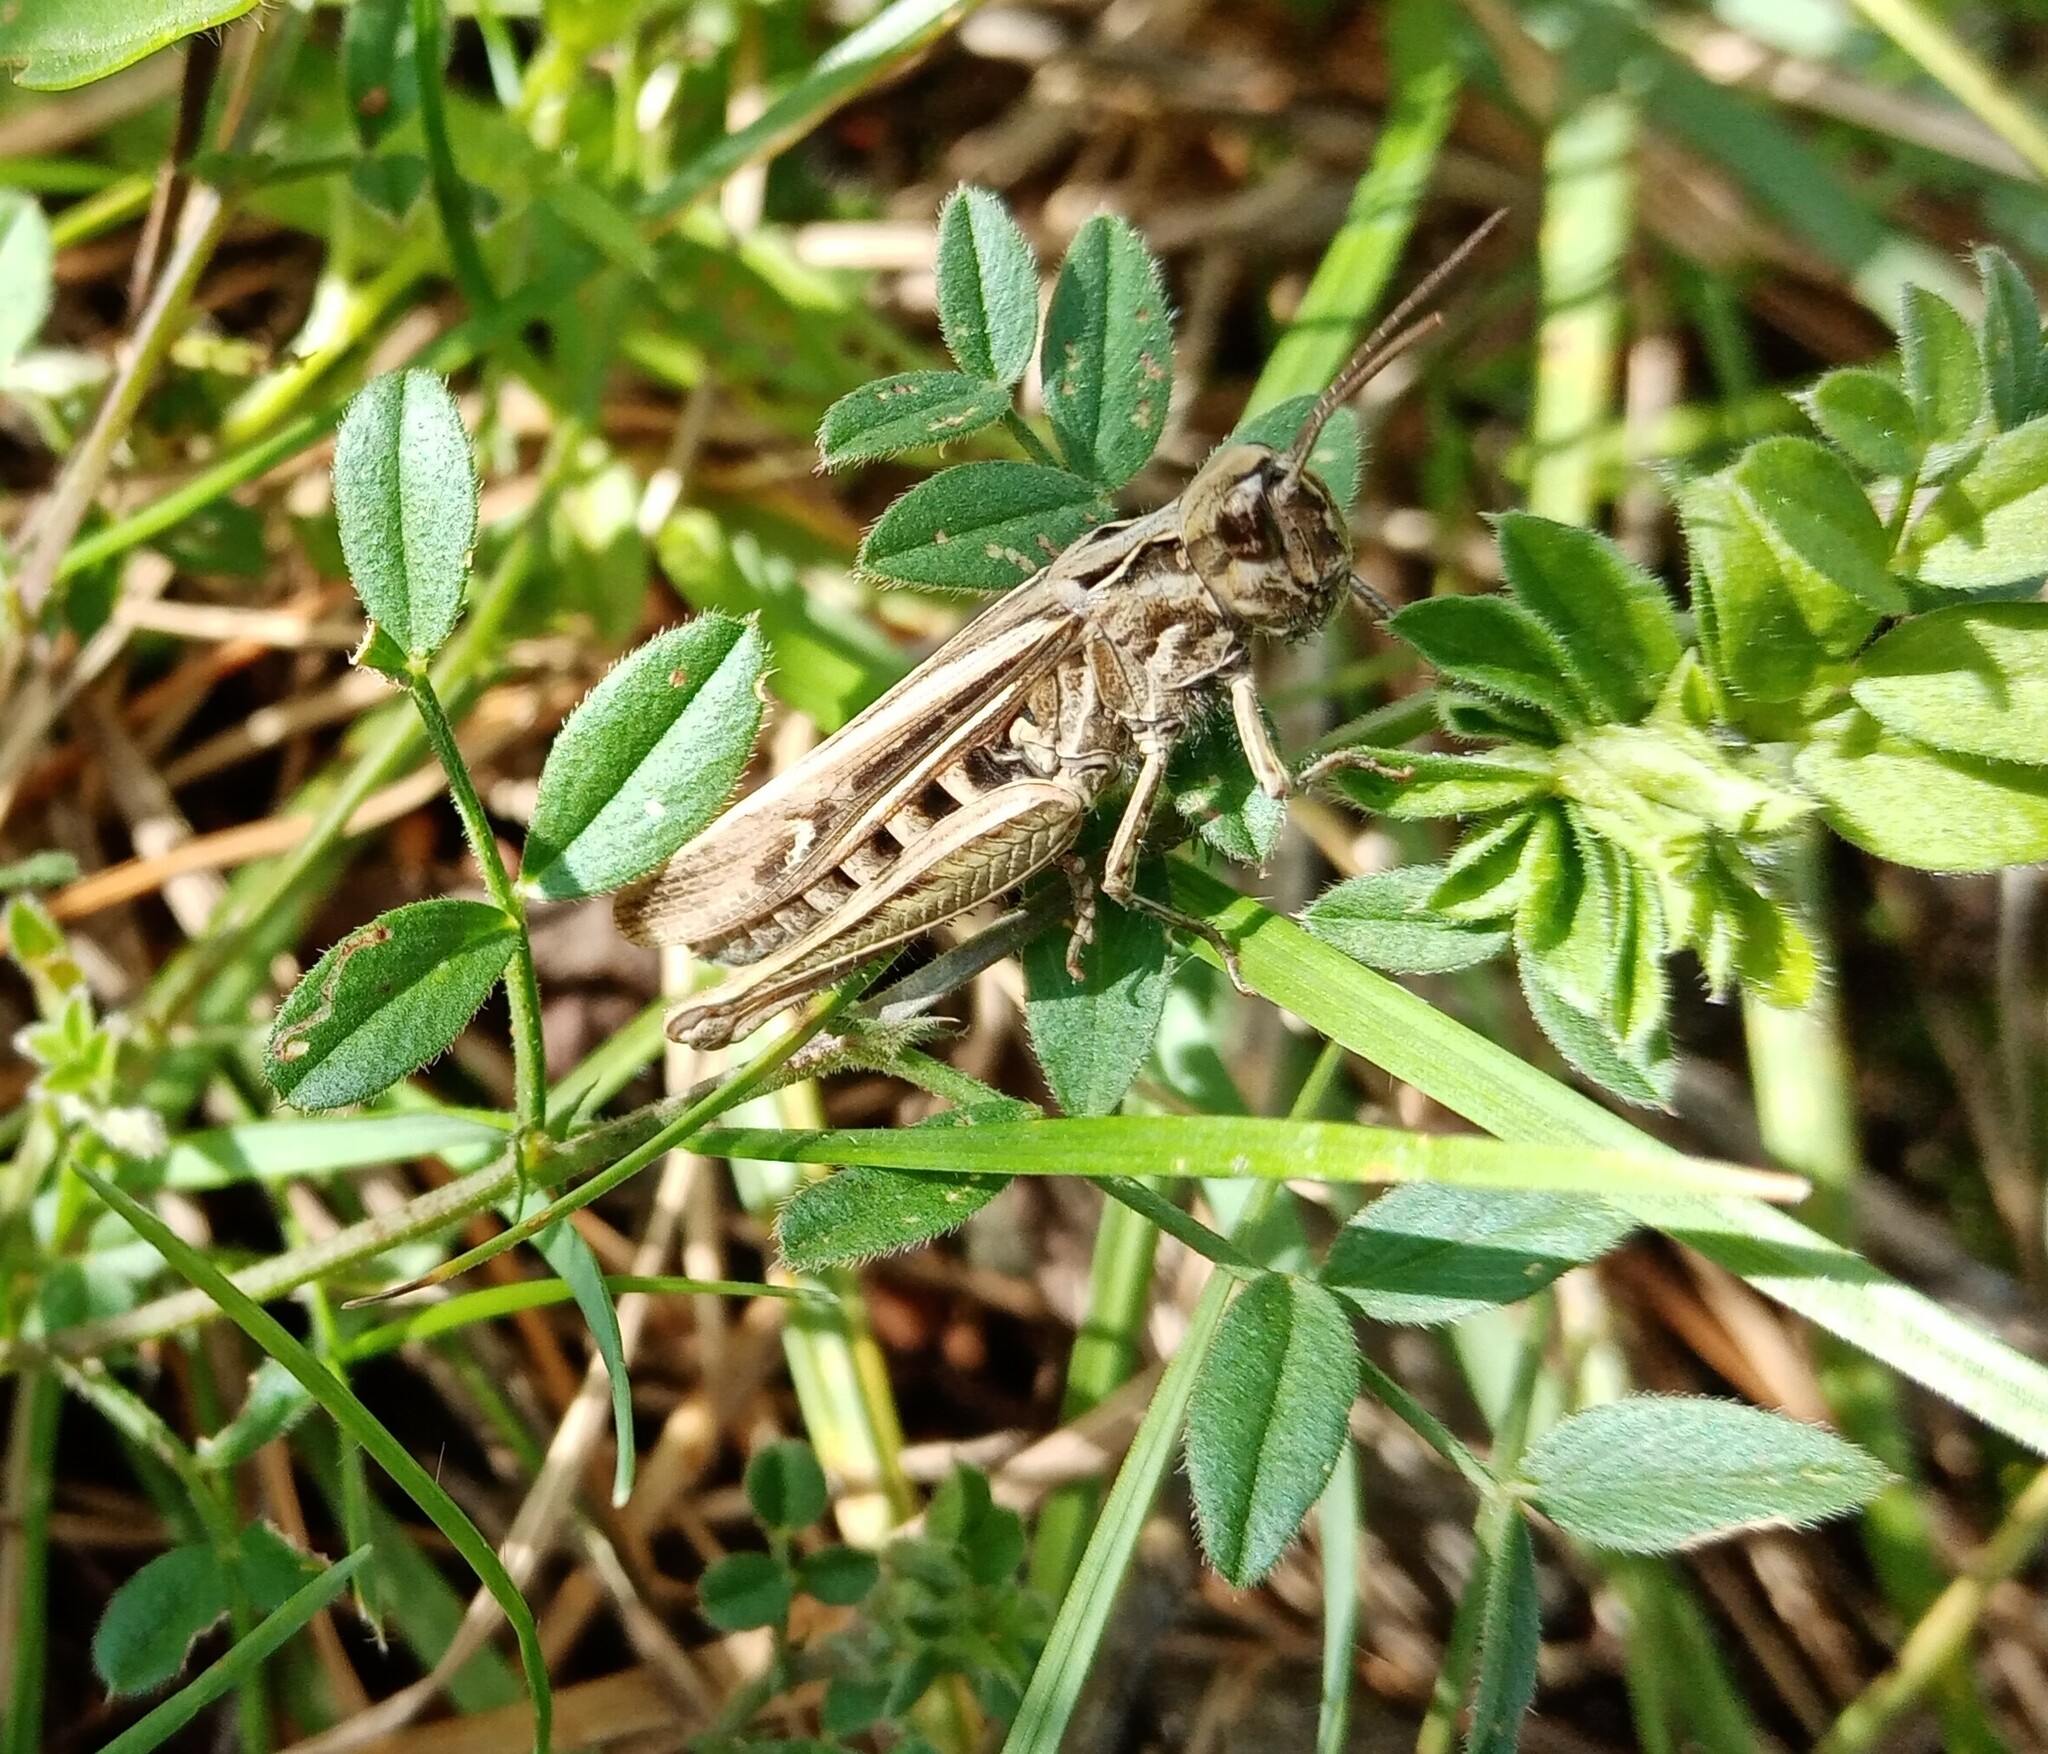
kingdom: Animalia
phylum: Arthropoda
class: Insecta
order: Orthoptera
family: Acrididae
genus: Chorthippus
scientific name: Chorthippus brunneus
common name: Field grasshopper
